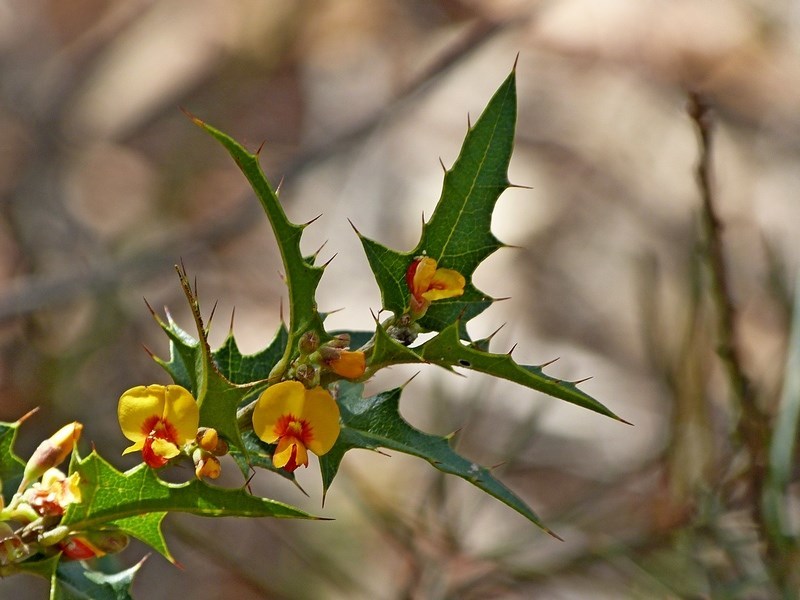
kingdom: Plantae
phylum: Tracheophyta
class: Magnoliopsida
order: Fabales
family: Fabaceae
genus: Podolobium
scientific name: Podolobium ilicifolium
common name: Native holly
